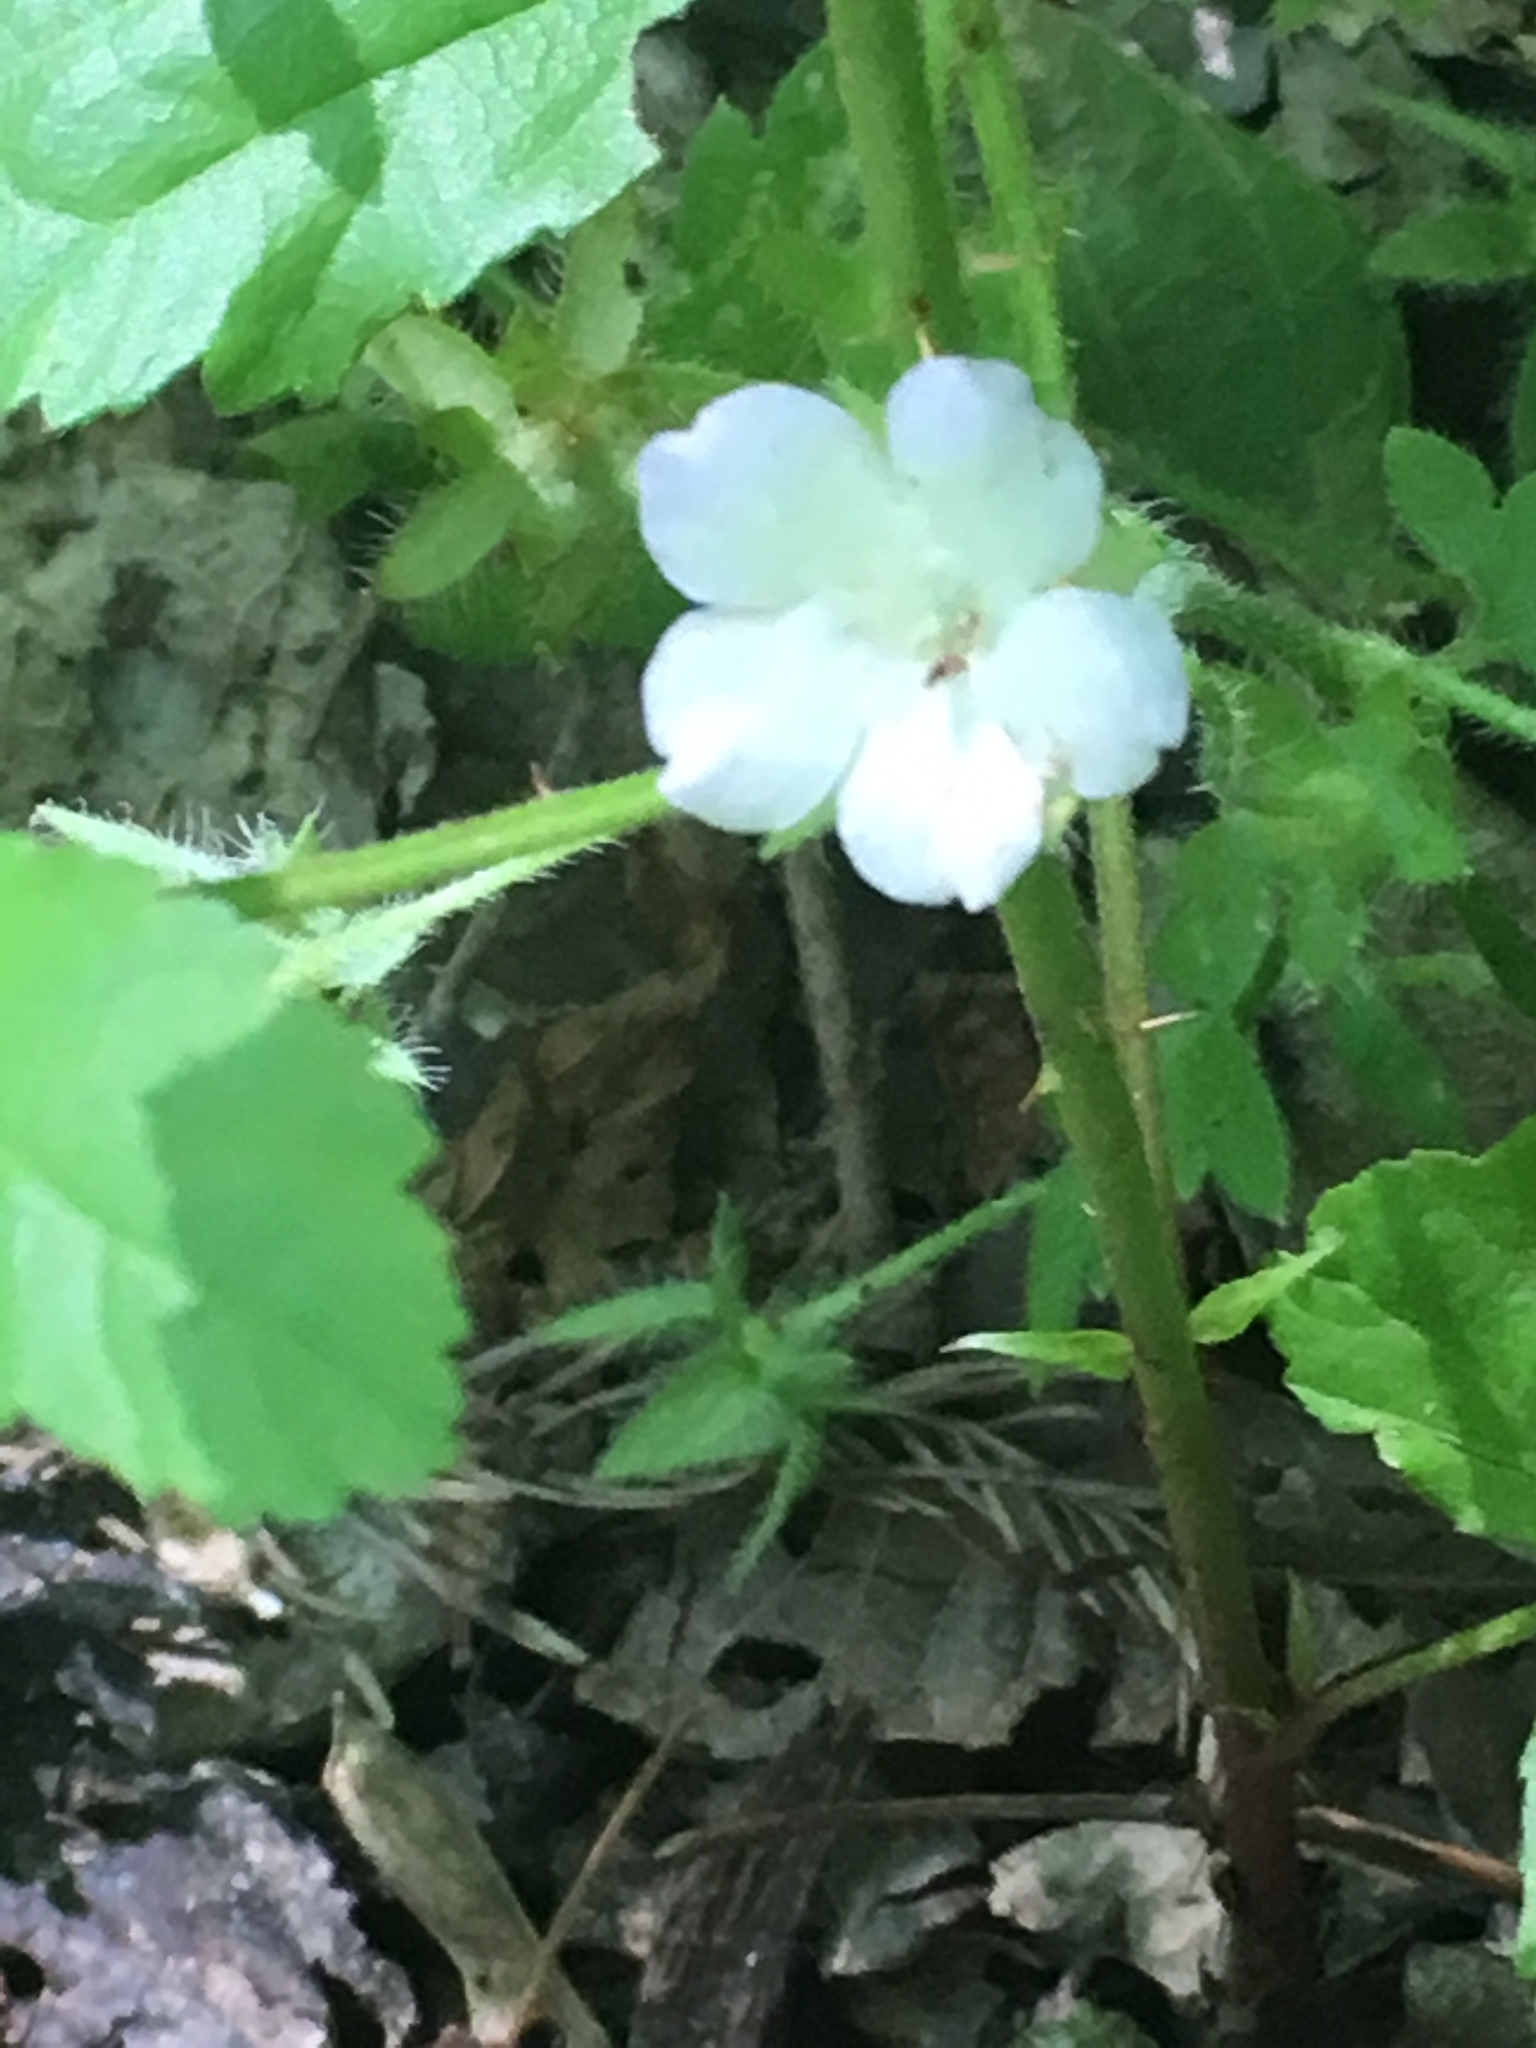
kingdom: Plantae
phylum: Tracheophyta
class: Magnoliopsida
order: Rosales
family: Rosaceae
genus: Rubus
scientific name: Rubus trivialis
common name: Southern dewberry
